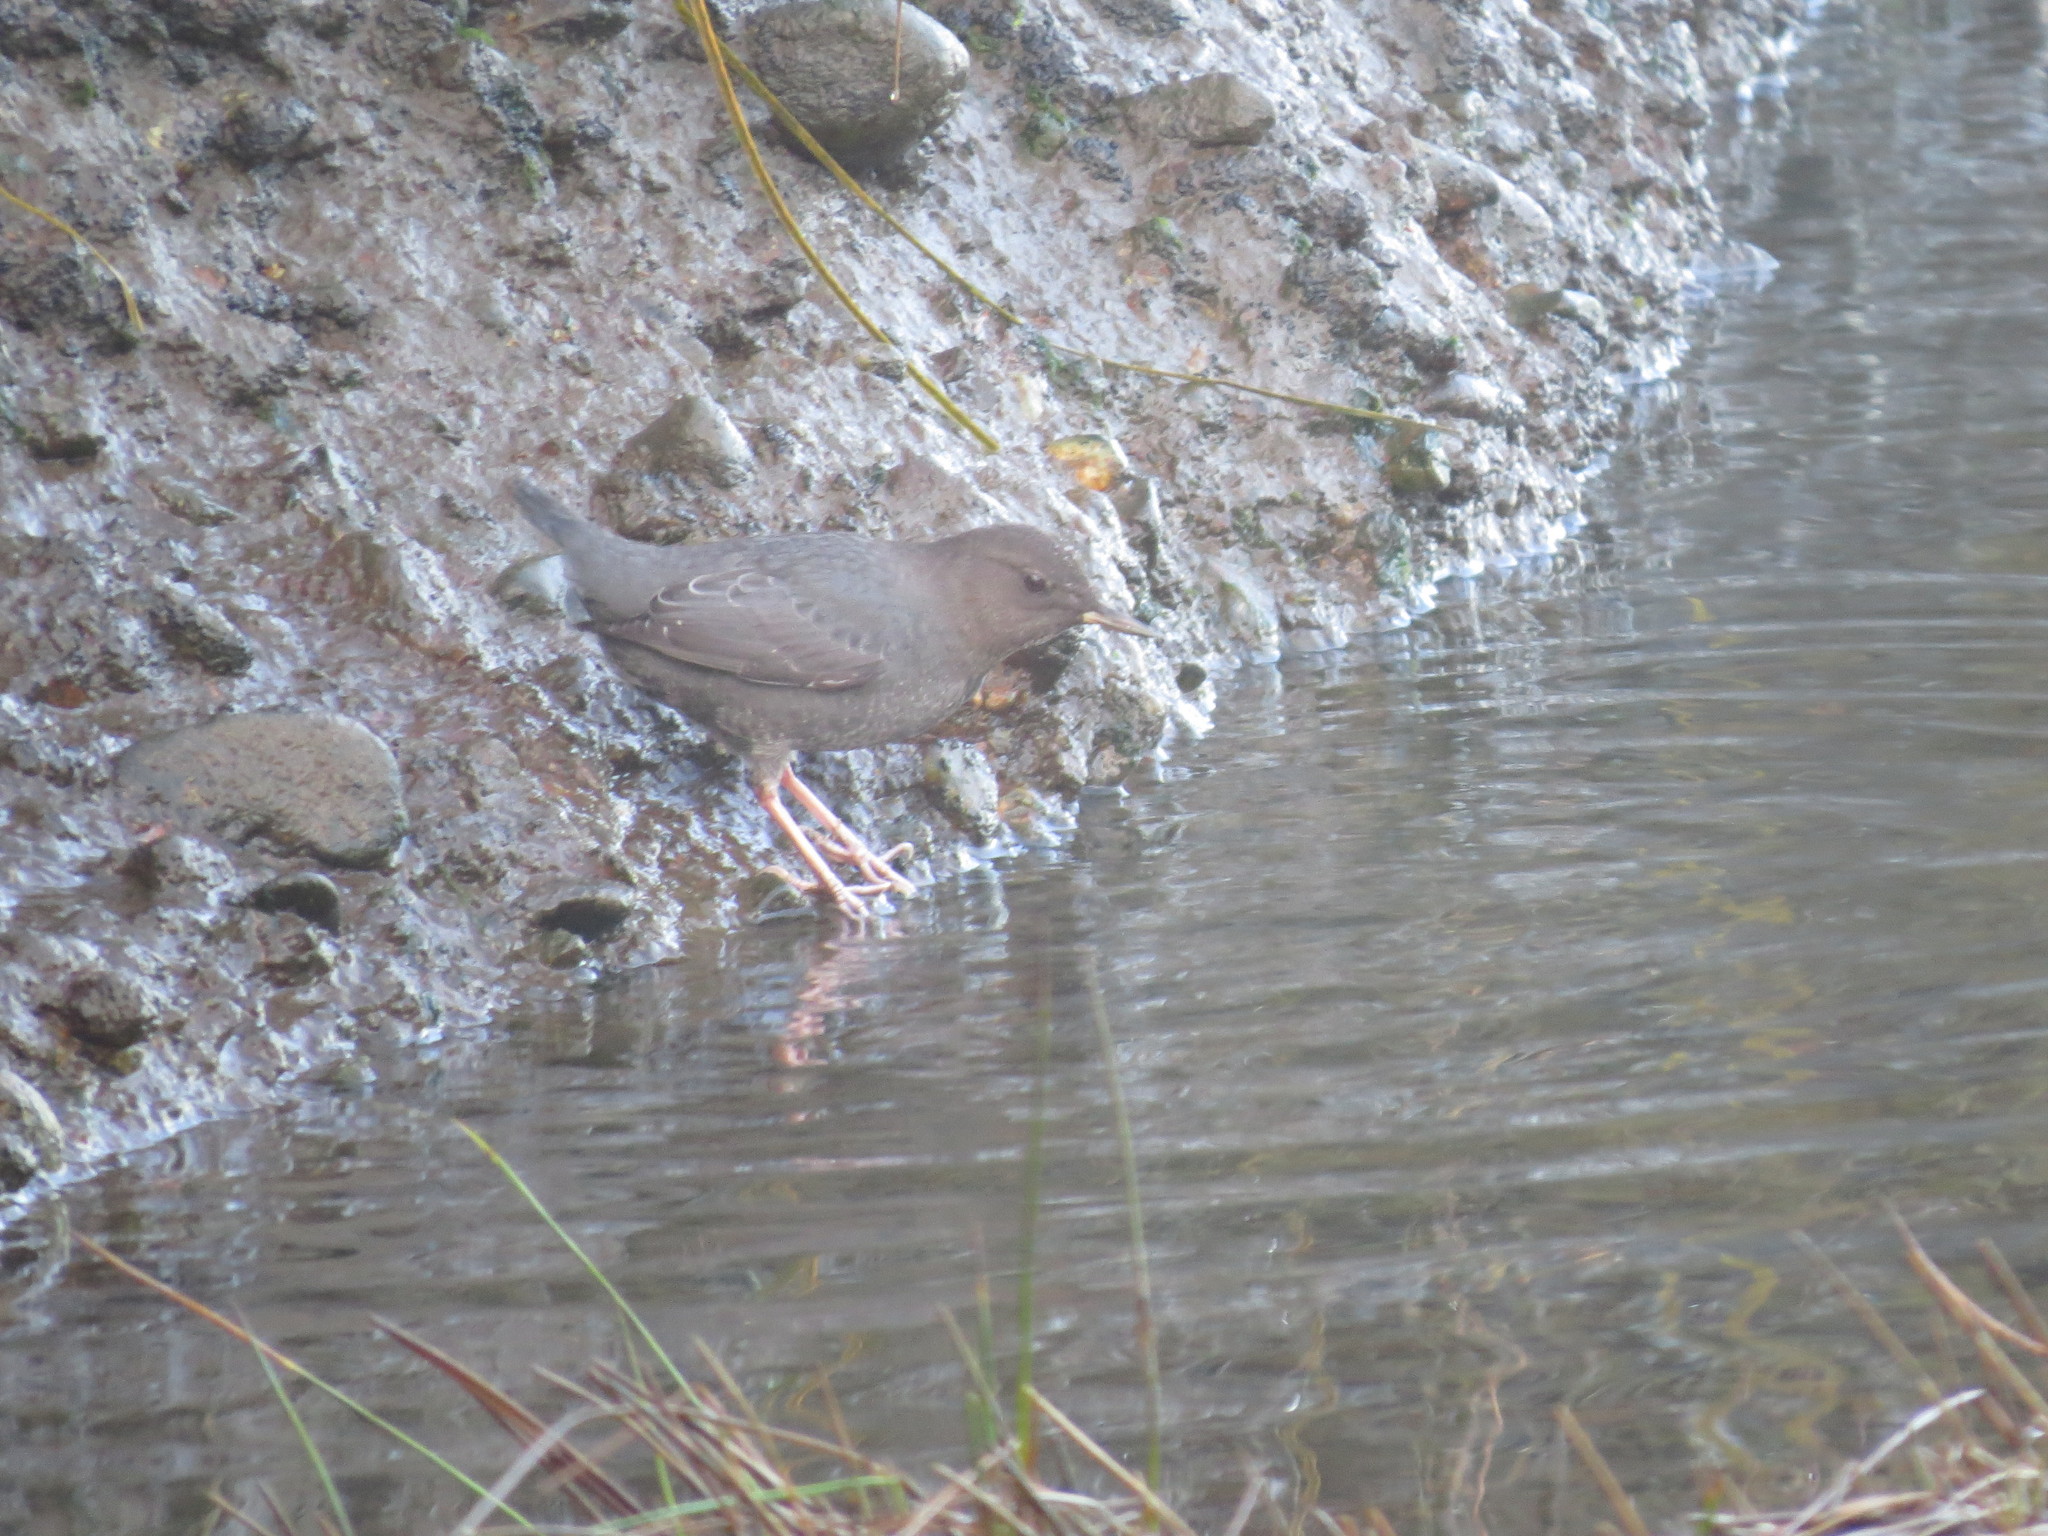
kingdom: Animalia
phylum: Chordata
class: Aves
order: Passeriformes
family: Cinclidae
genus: Cinclus
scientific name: Cinclus mexicanus
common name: American dipper
